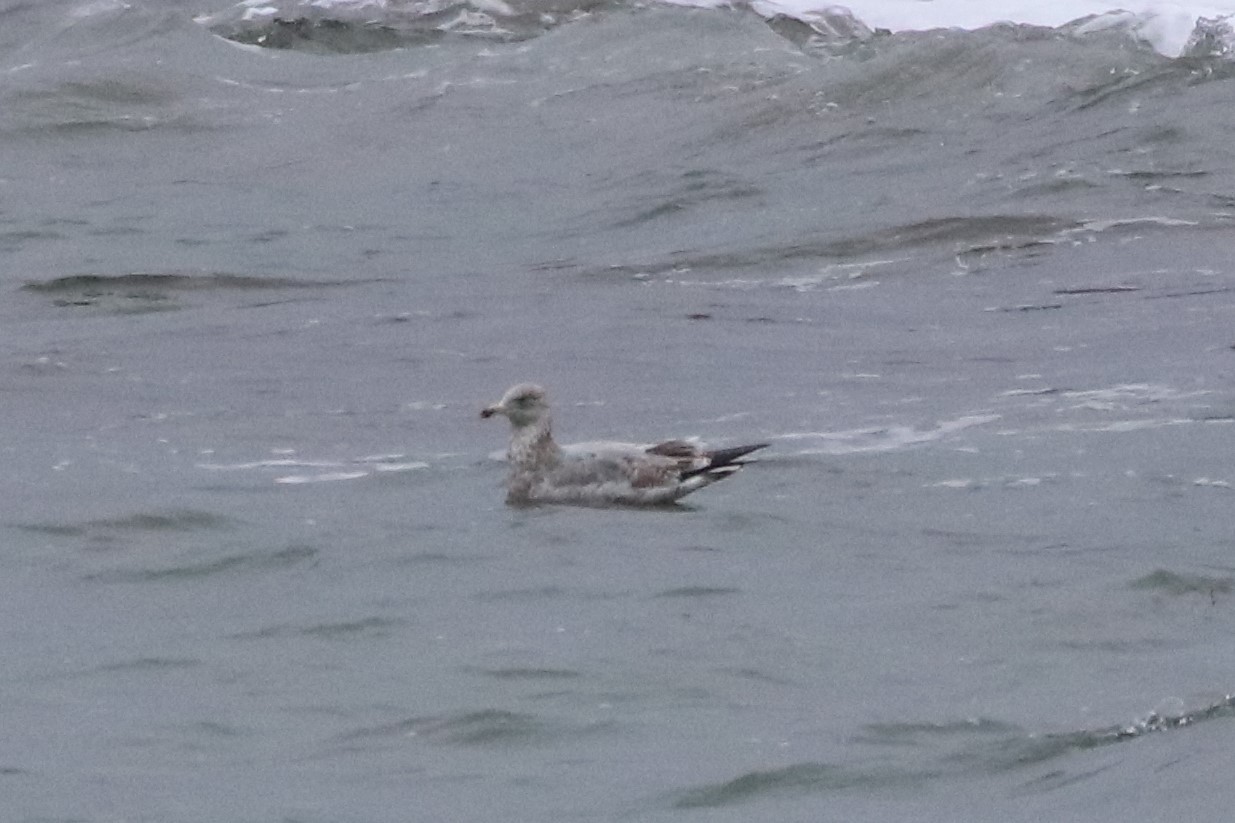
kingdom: Animalia
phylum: Chordata
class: Aves
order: Charadriiformes
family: Laridae
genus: Larus
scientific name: Larus argentatus
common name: Herring gull
